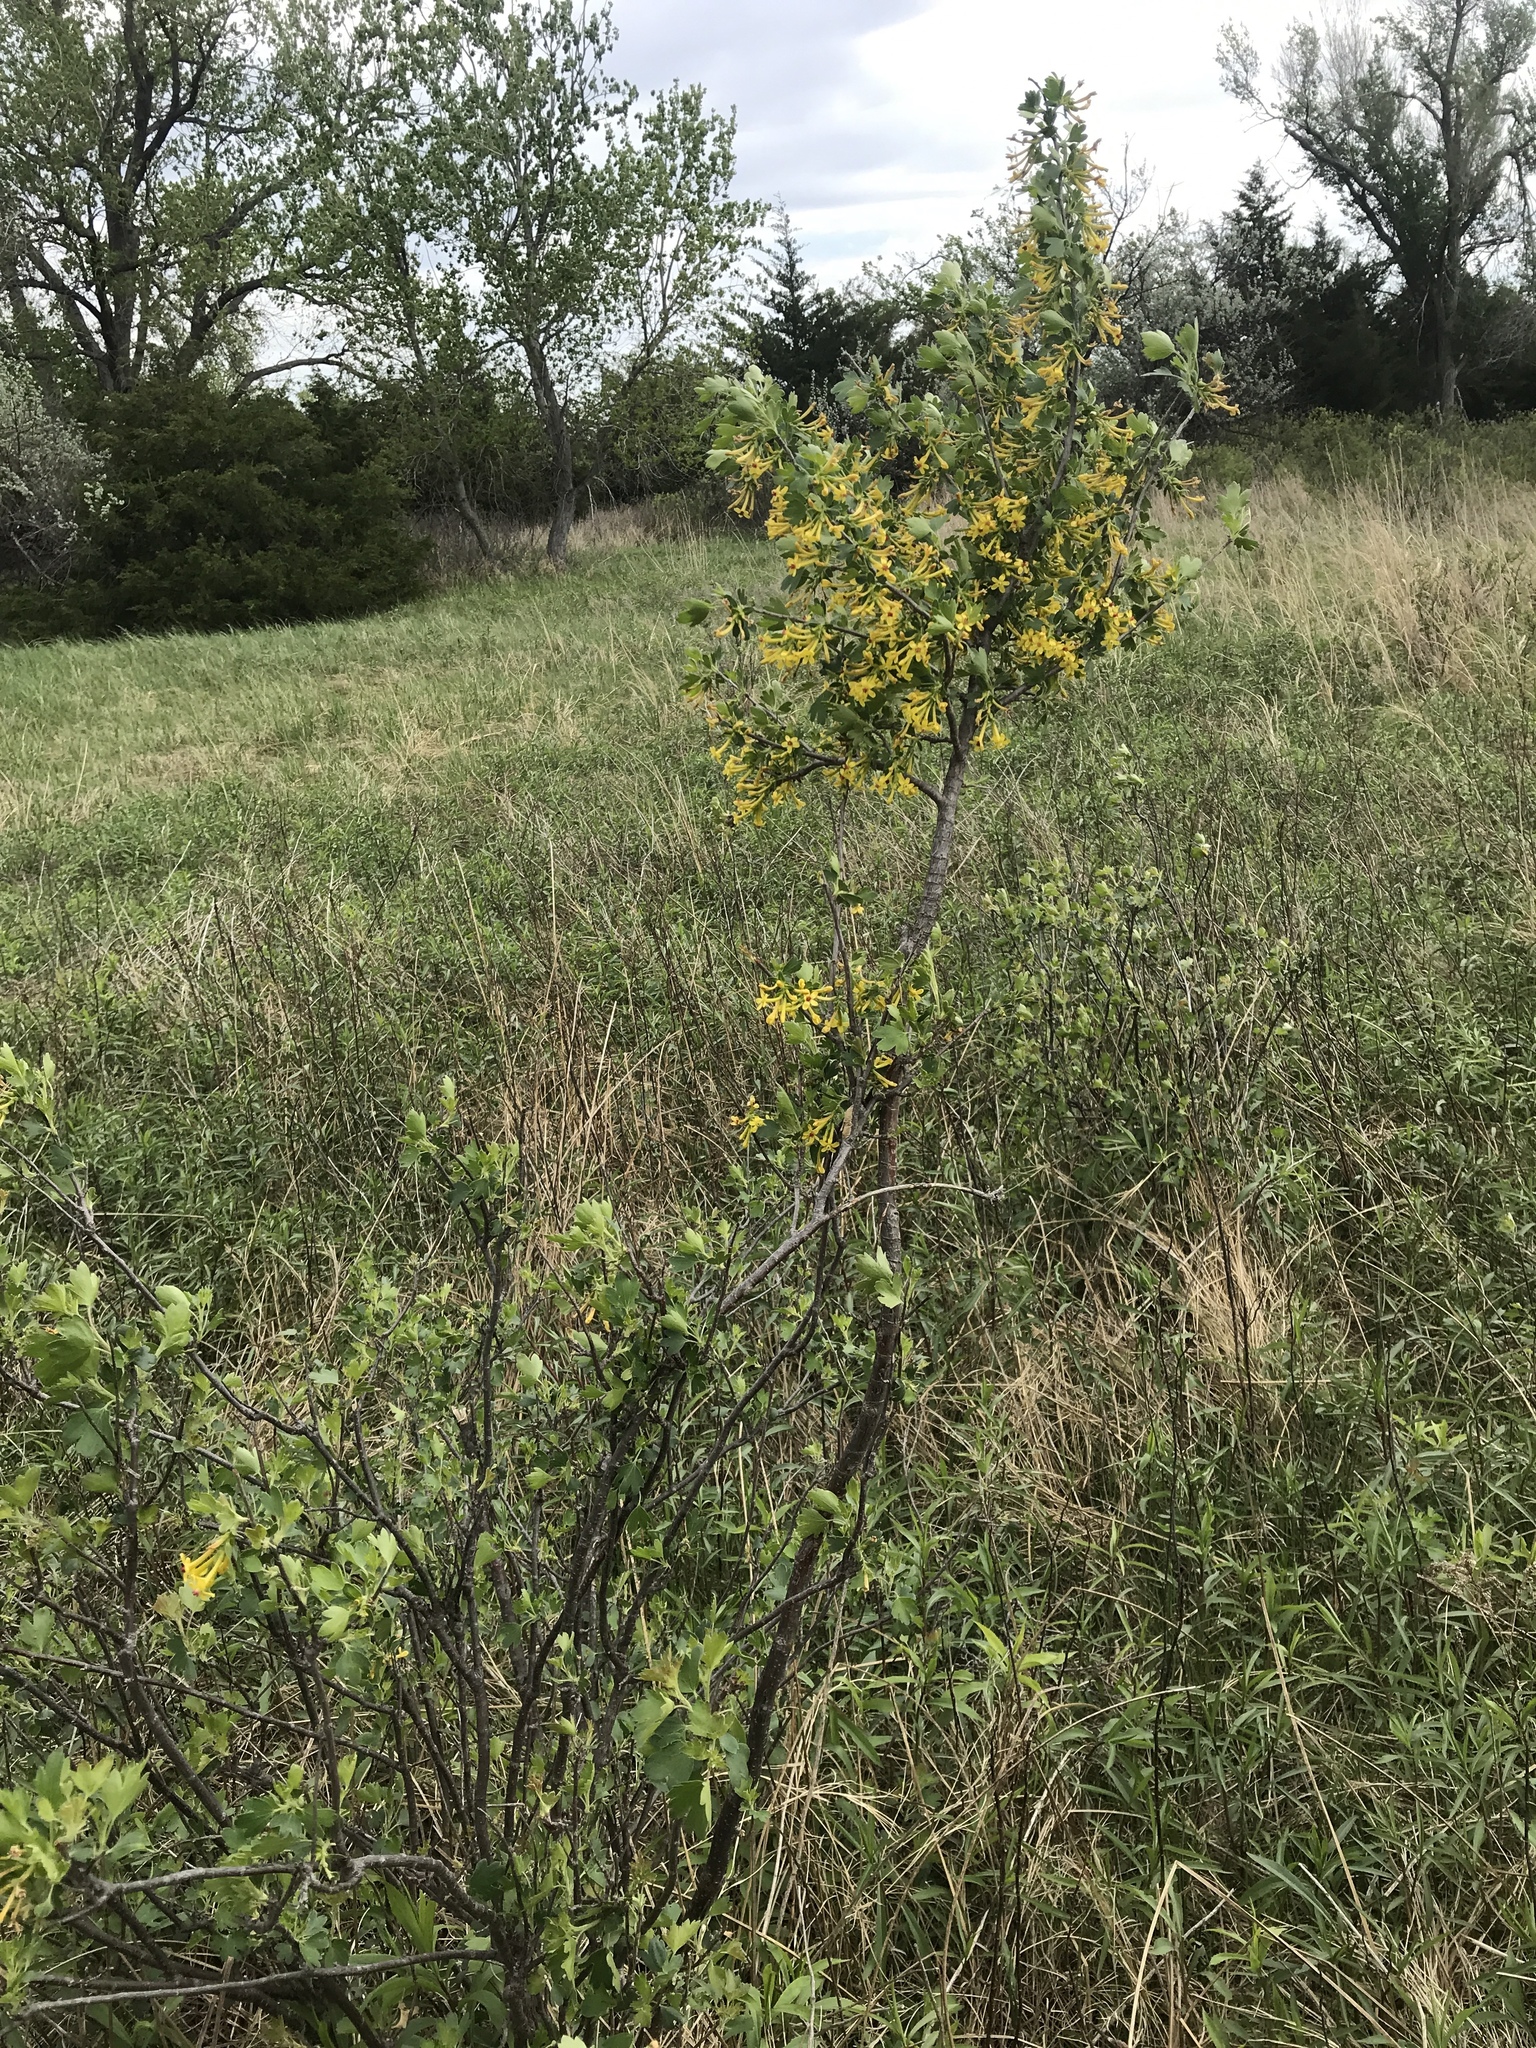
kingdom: Plantae
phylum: Tracheophyta
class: Magnoliopsida
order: Saxifragales
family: Grossulariaceae
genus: Ribes
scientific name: Ribes aureum
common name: Golden currant
